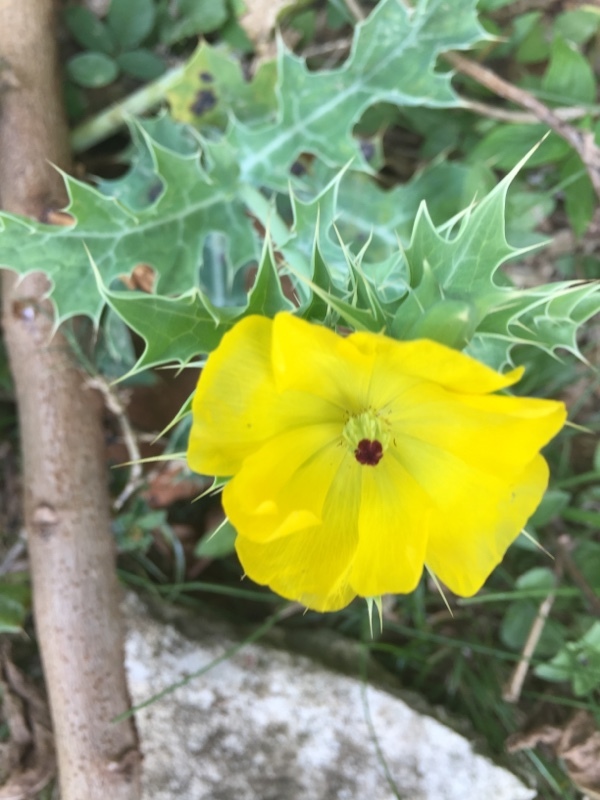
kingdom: Plantae
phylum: Tracheophyta
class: Magnoliopsida
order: Ranunculales
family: Papaveraceae
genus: Argemone
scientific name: Argemone mexicana
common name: Mexican poppy
